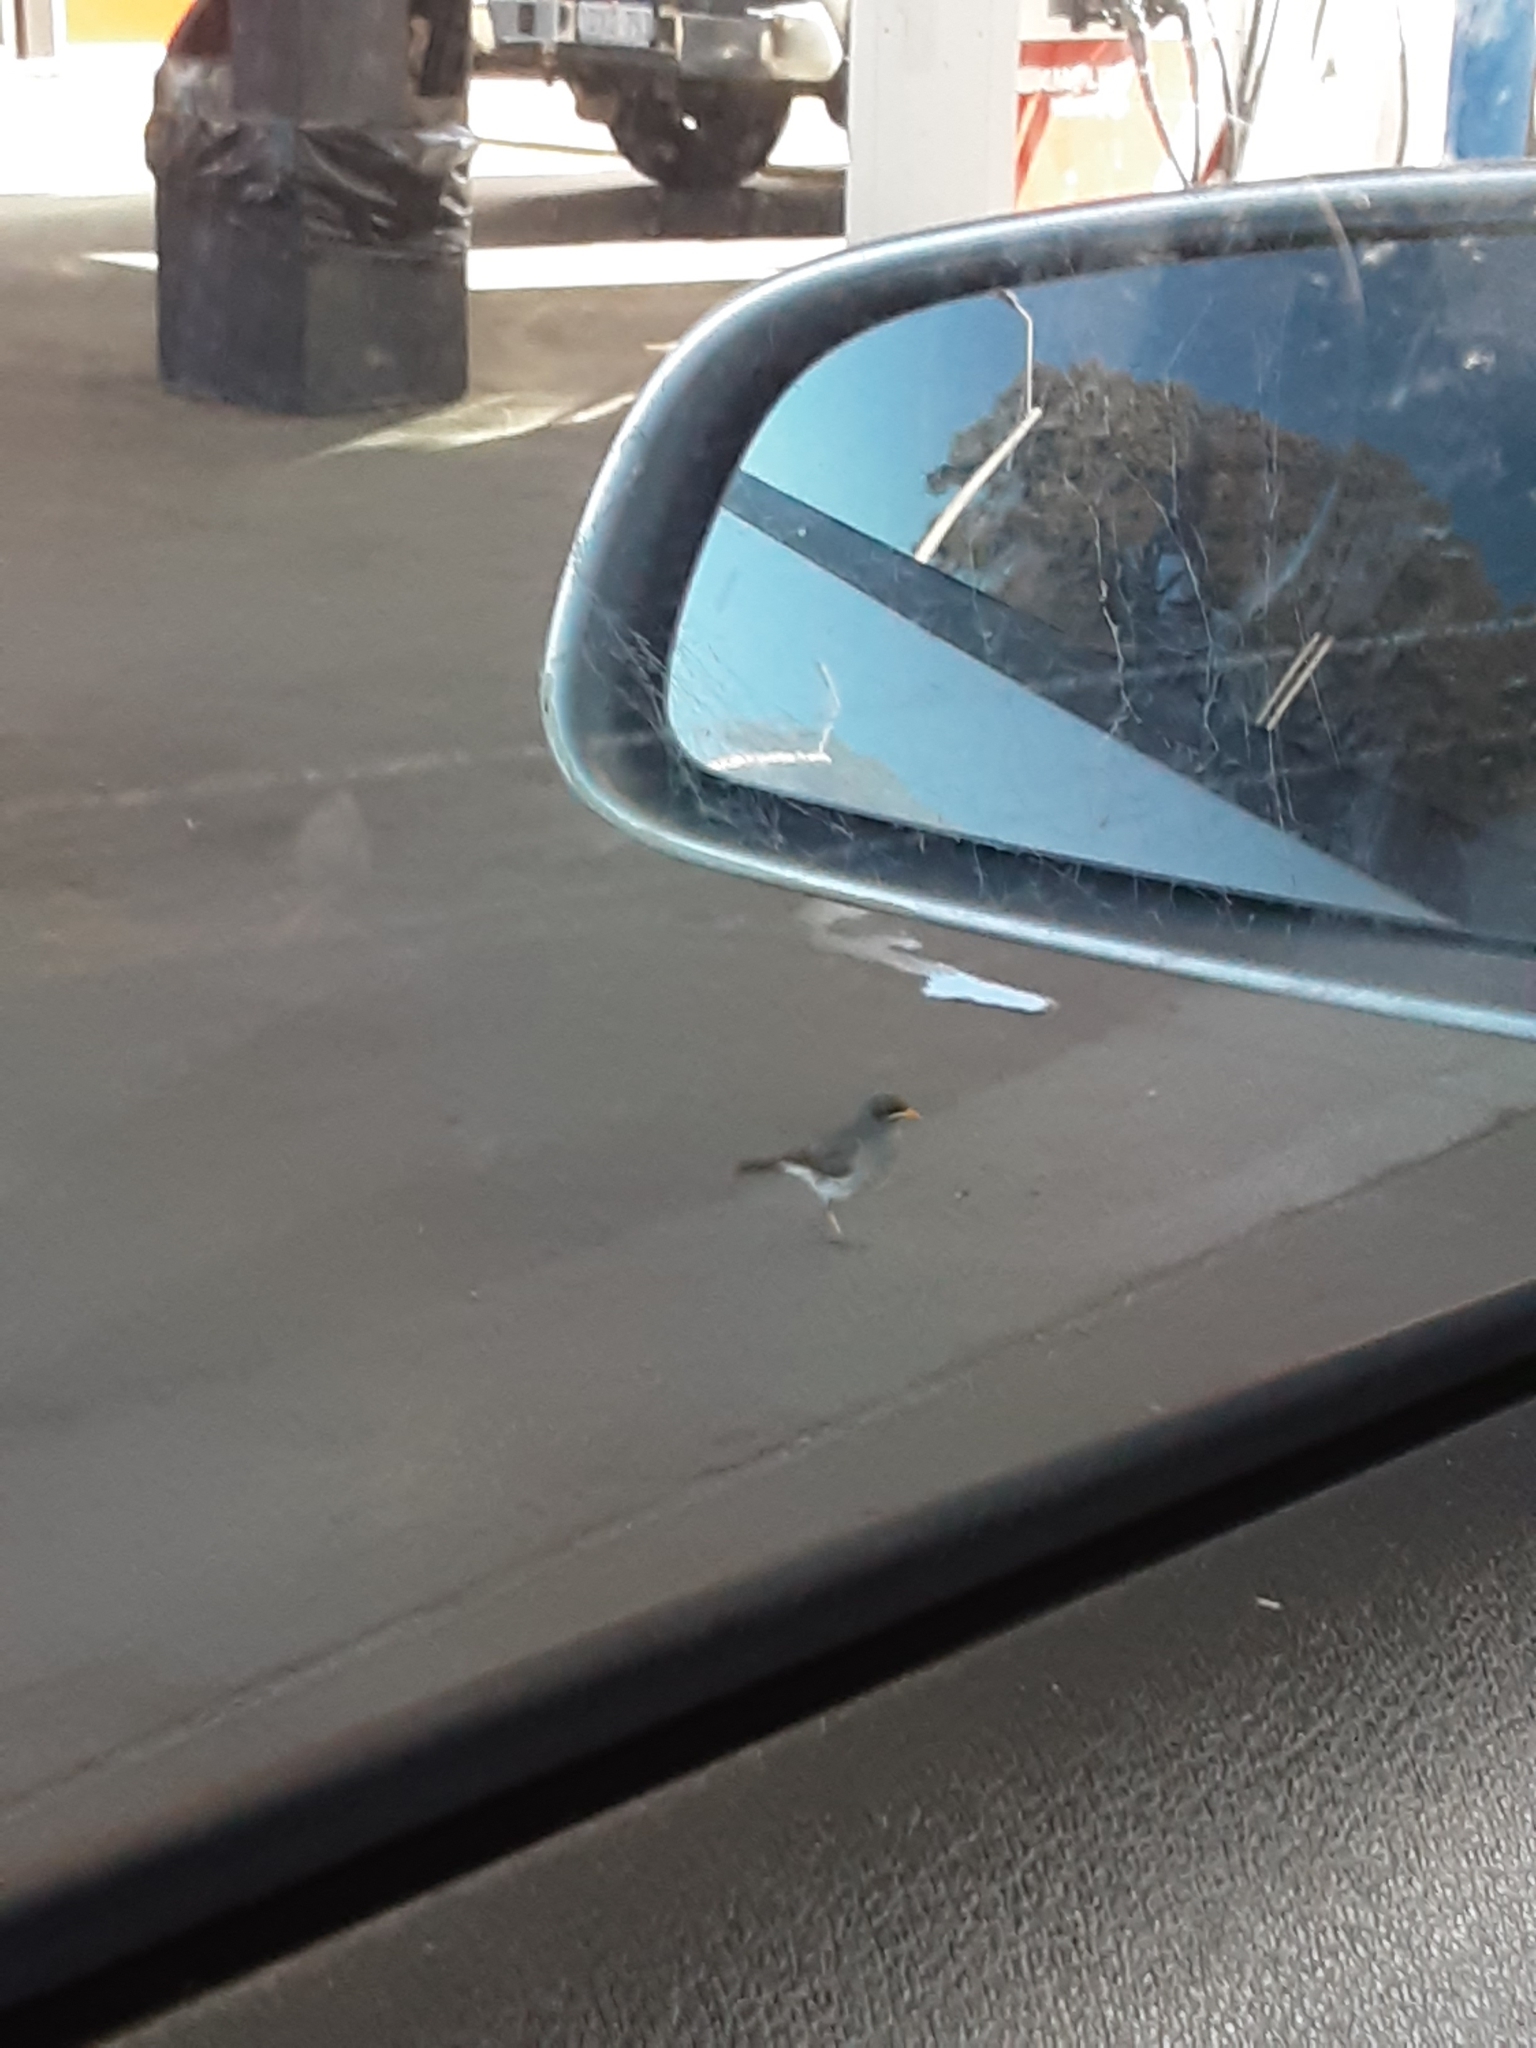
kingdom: Animalia
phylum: Chordata
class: Aves
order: Passeriformes
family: Meliphagidae
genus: Manorina
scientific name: Manorina flavigula
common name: Yellow-throated miner
